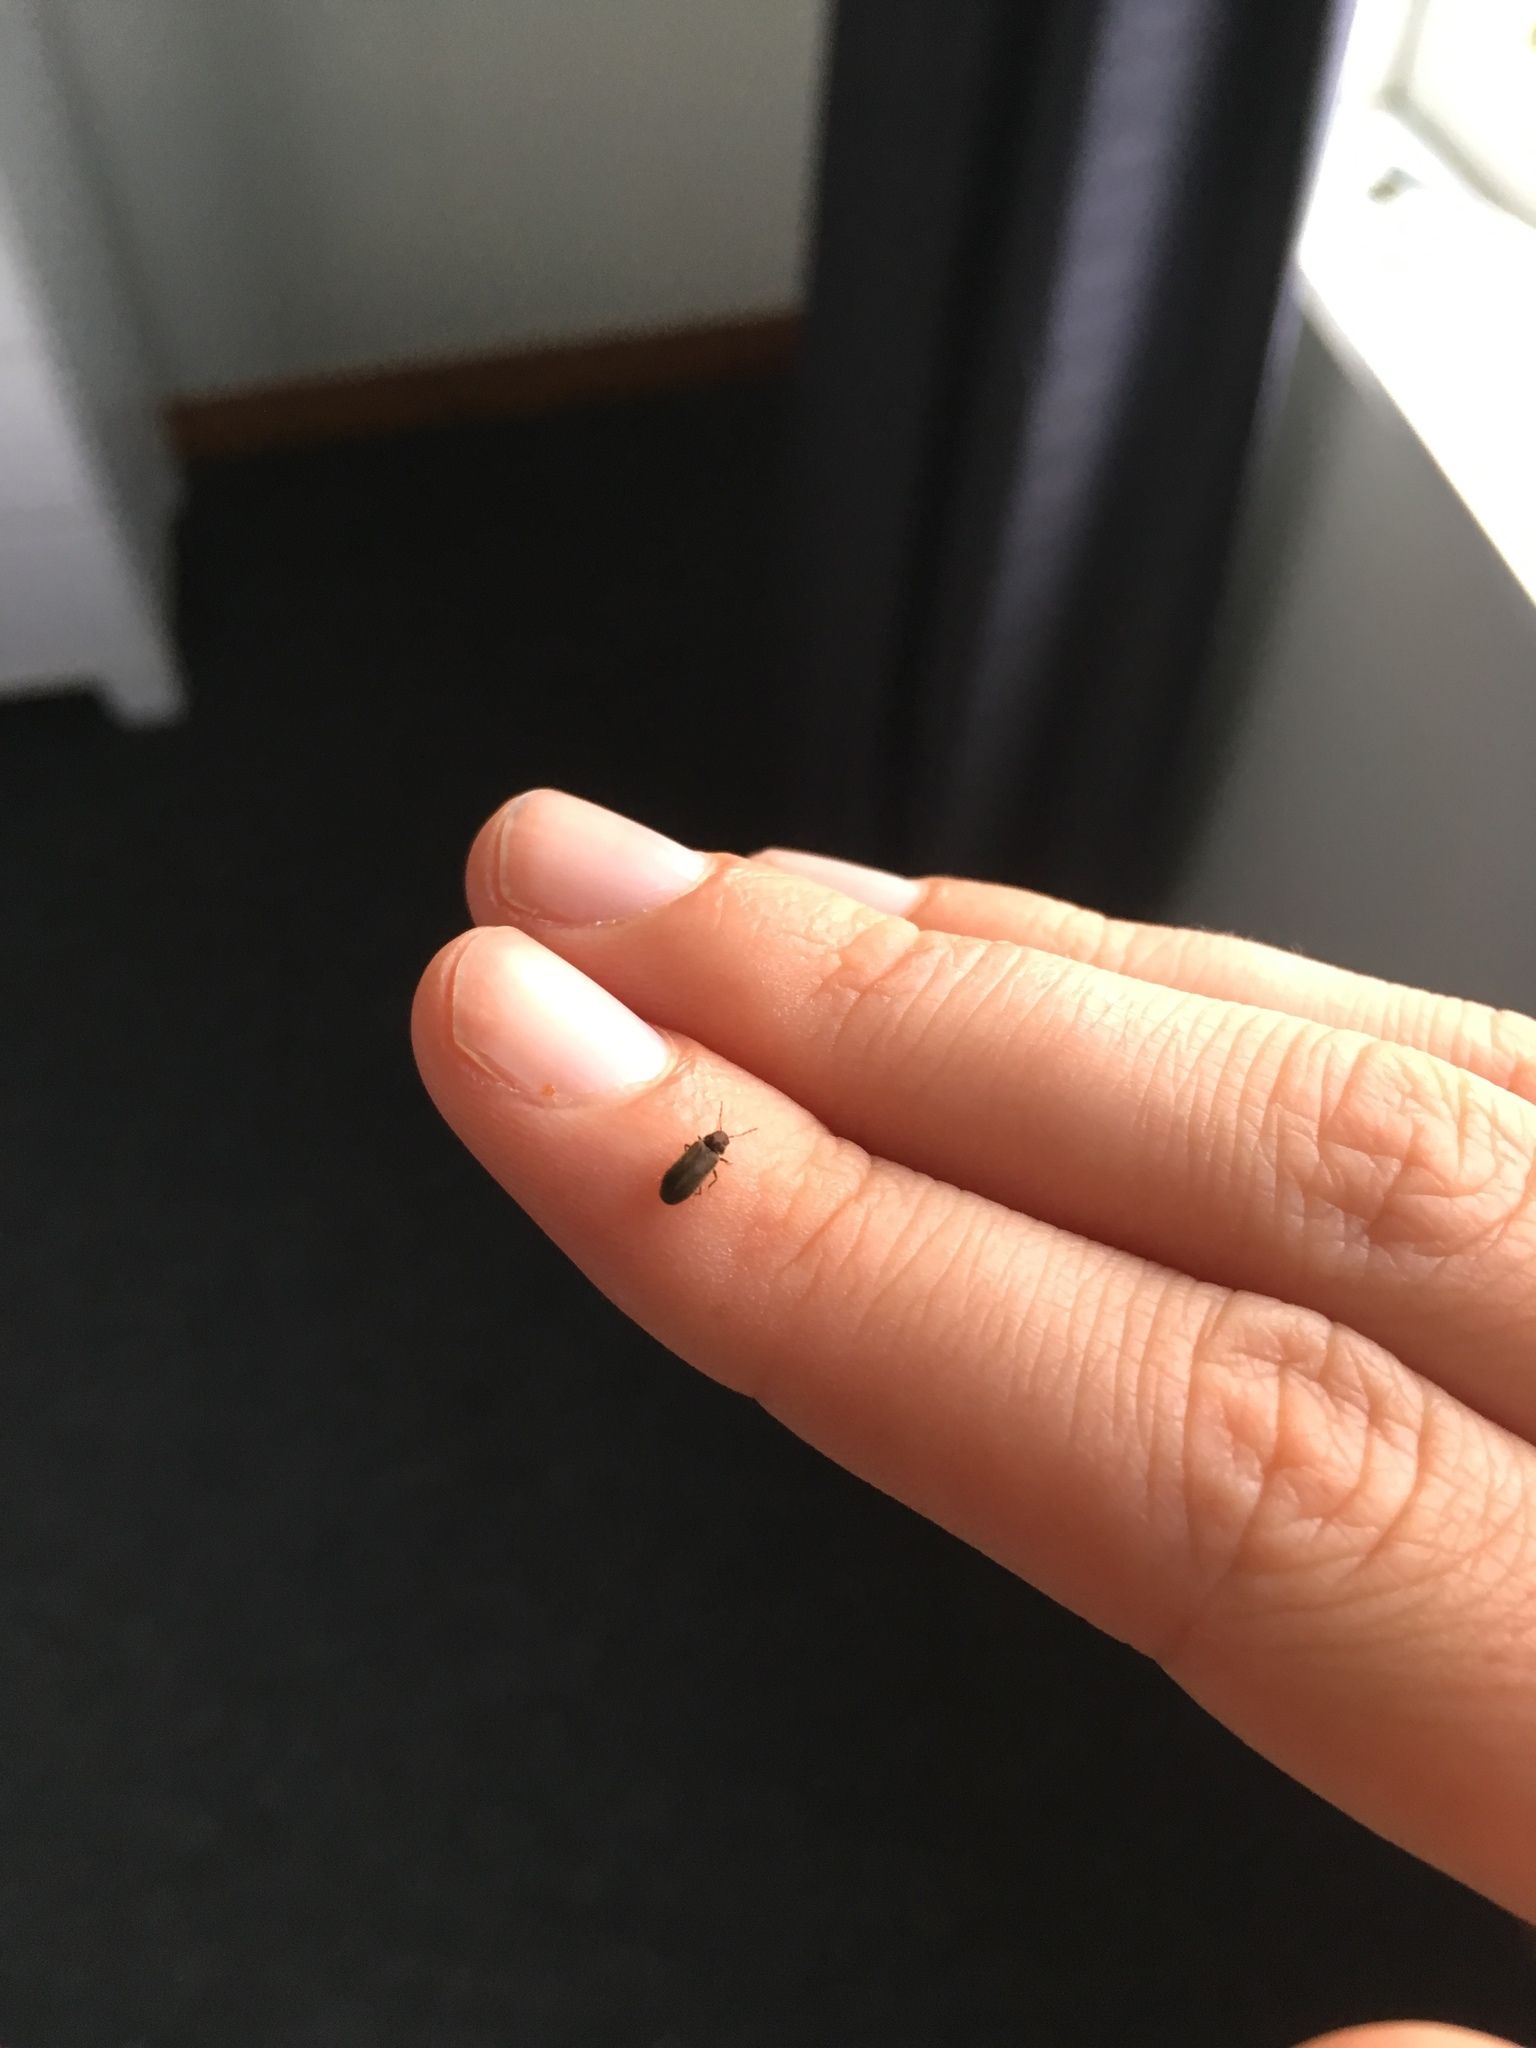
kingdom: Animalia
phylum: Arthropoda
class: Insecta
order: Coleoptera
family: Anobiidae
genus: Anobium
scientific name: Anobium punctatum
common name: Furniture beetle
